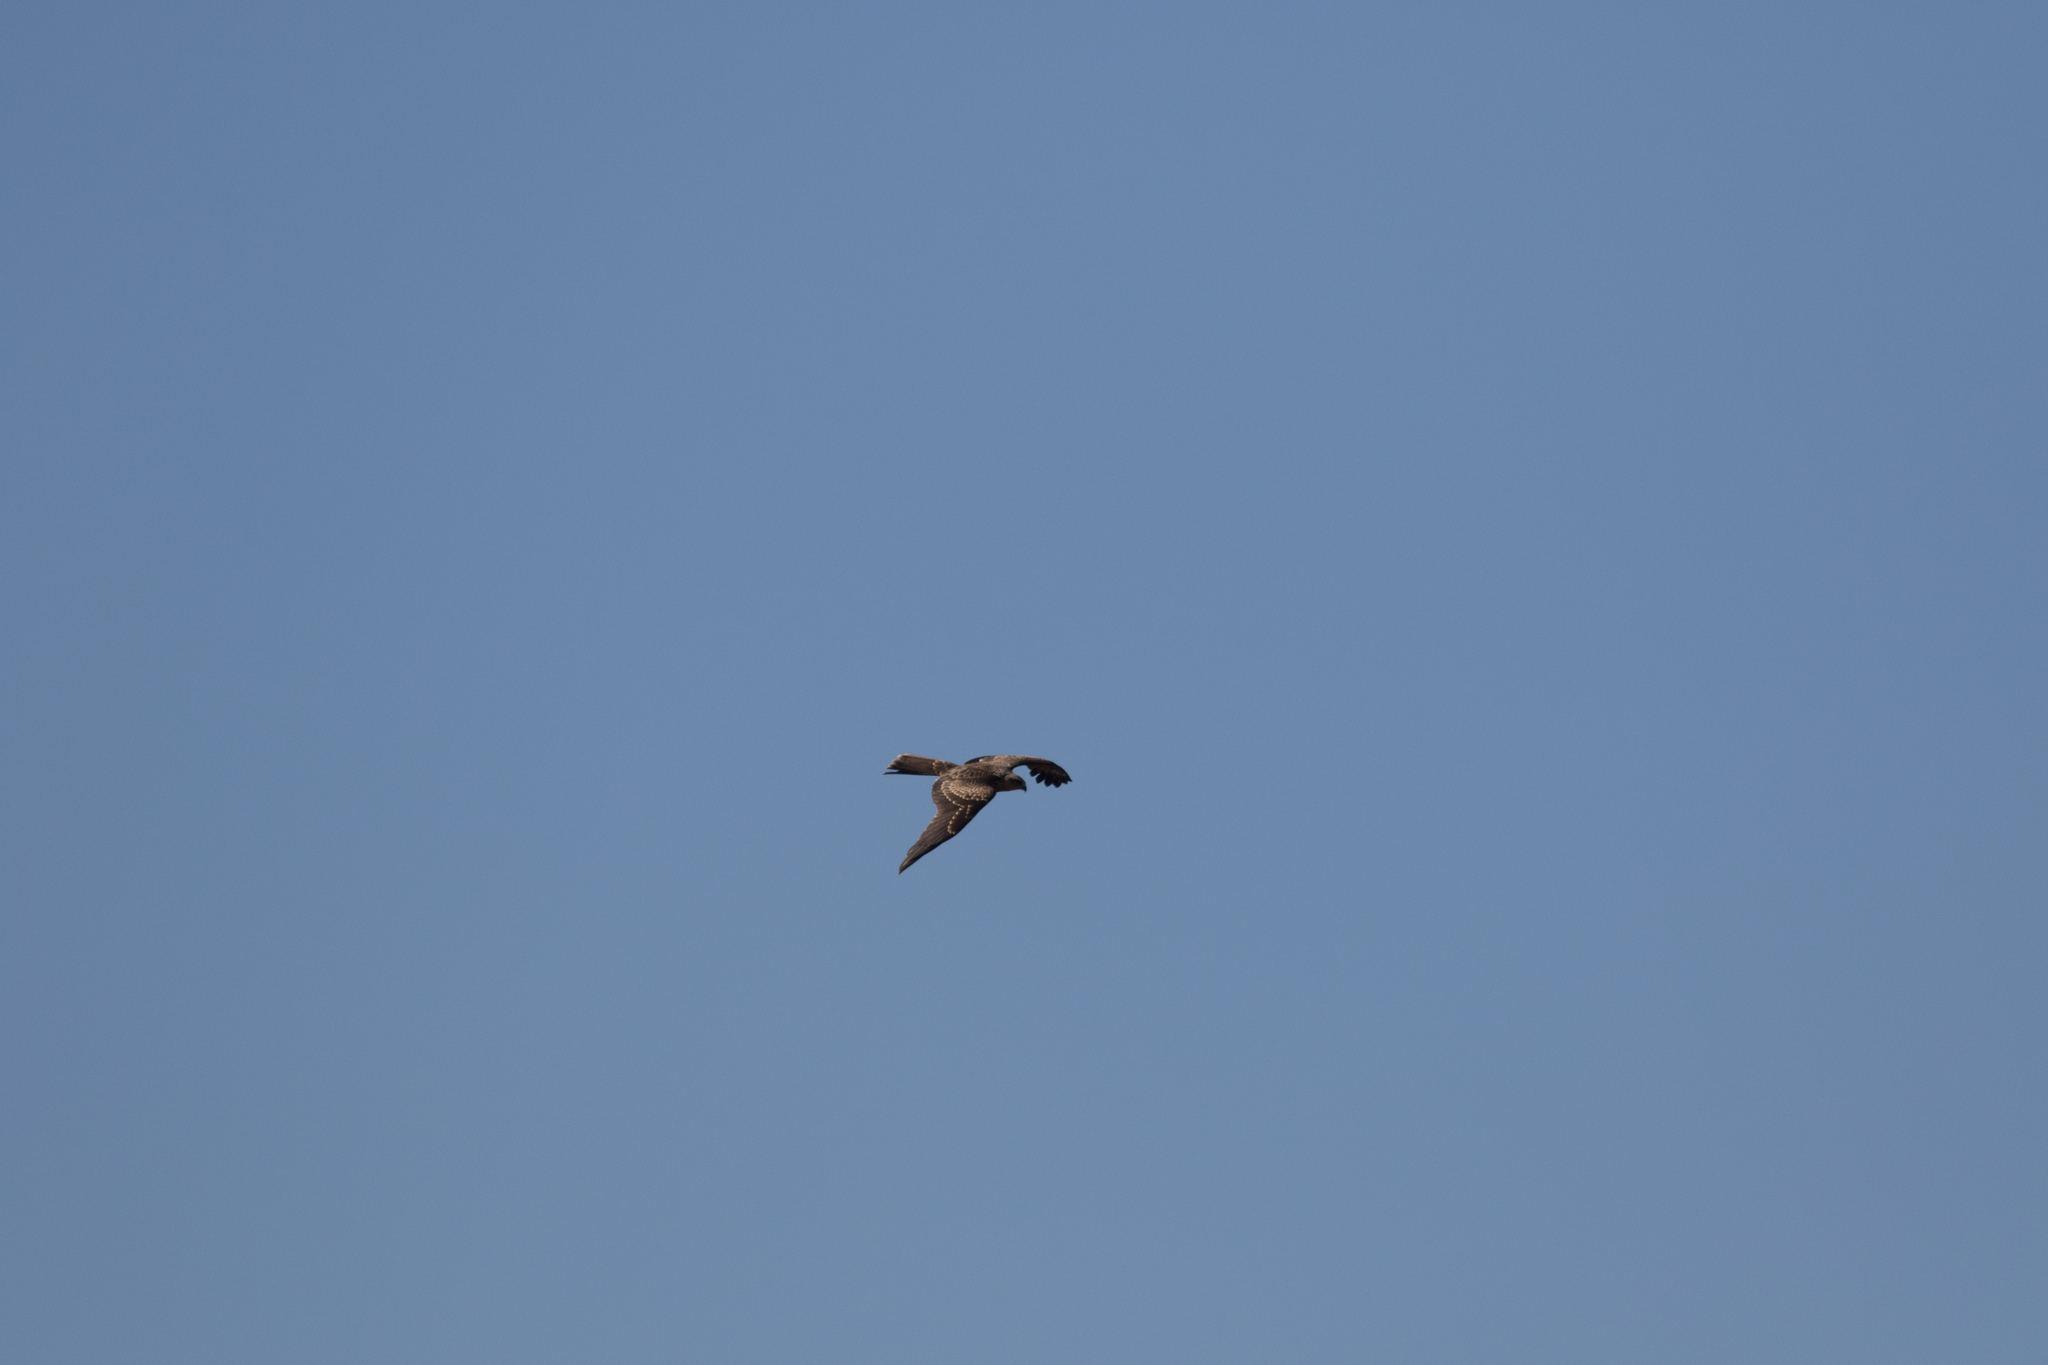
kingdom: Animalia
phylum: Chordata
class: Aves
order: Accipitriformes
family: Accipitridae
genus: Milvus
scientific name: Milvus migrans
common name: Black kite
